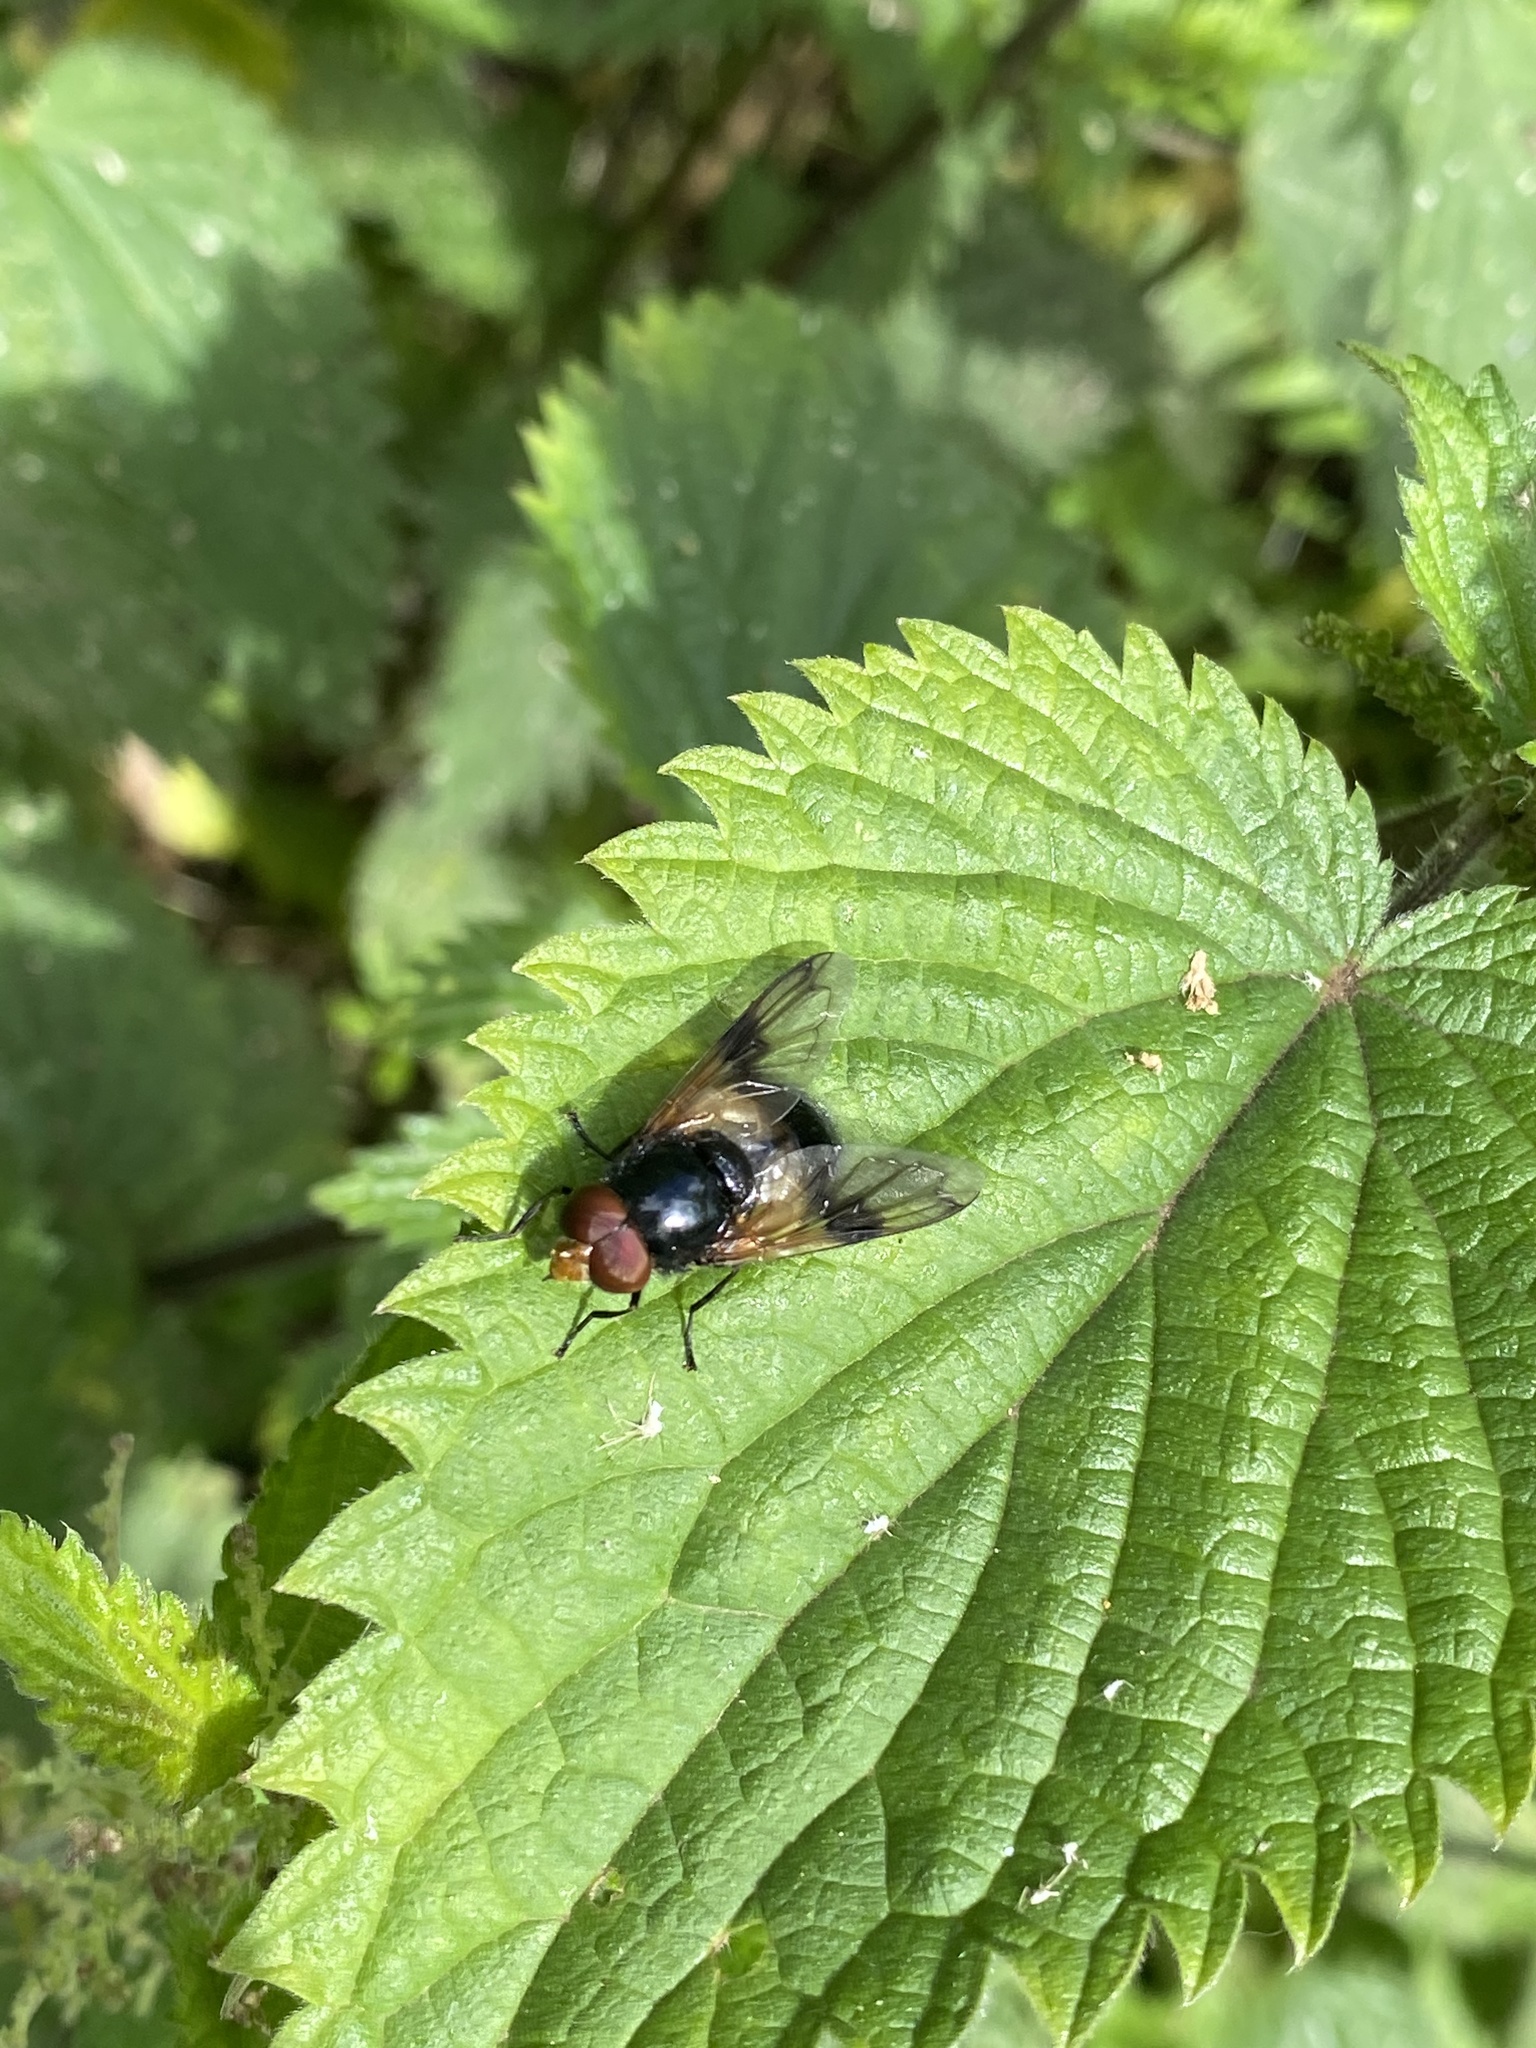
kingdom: Animalia
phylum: Arthropoda
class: Insecta
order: Diptera
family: Syrphidae
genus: Volucella
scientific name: Volucella pellucens
